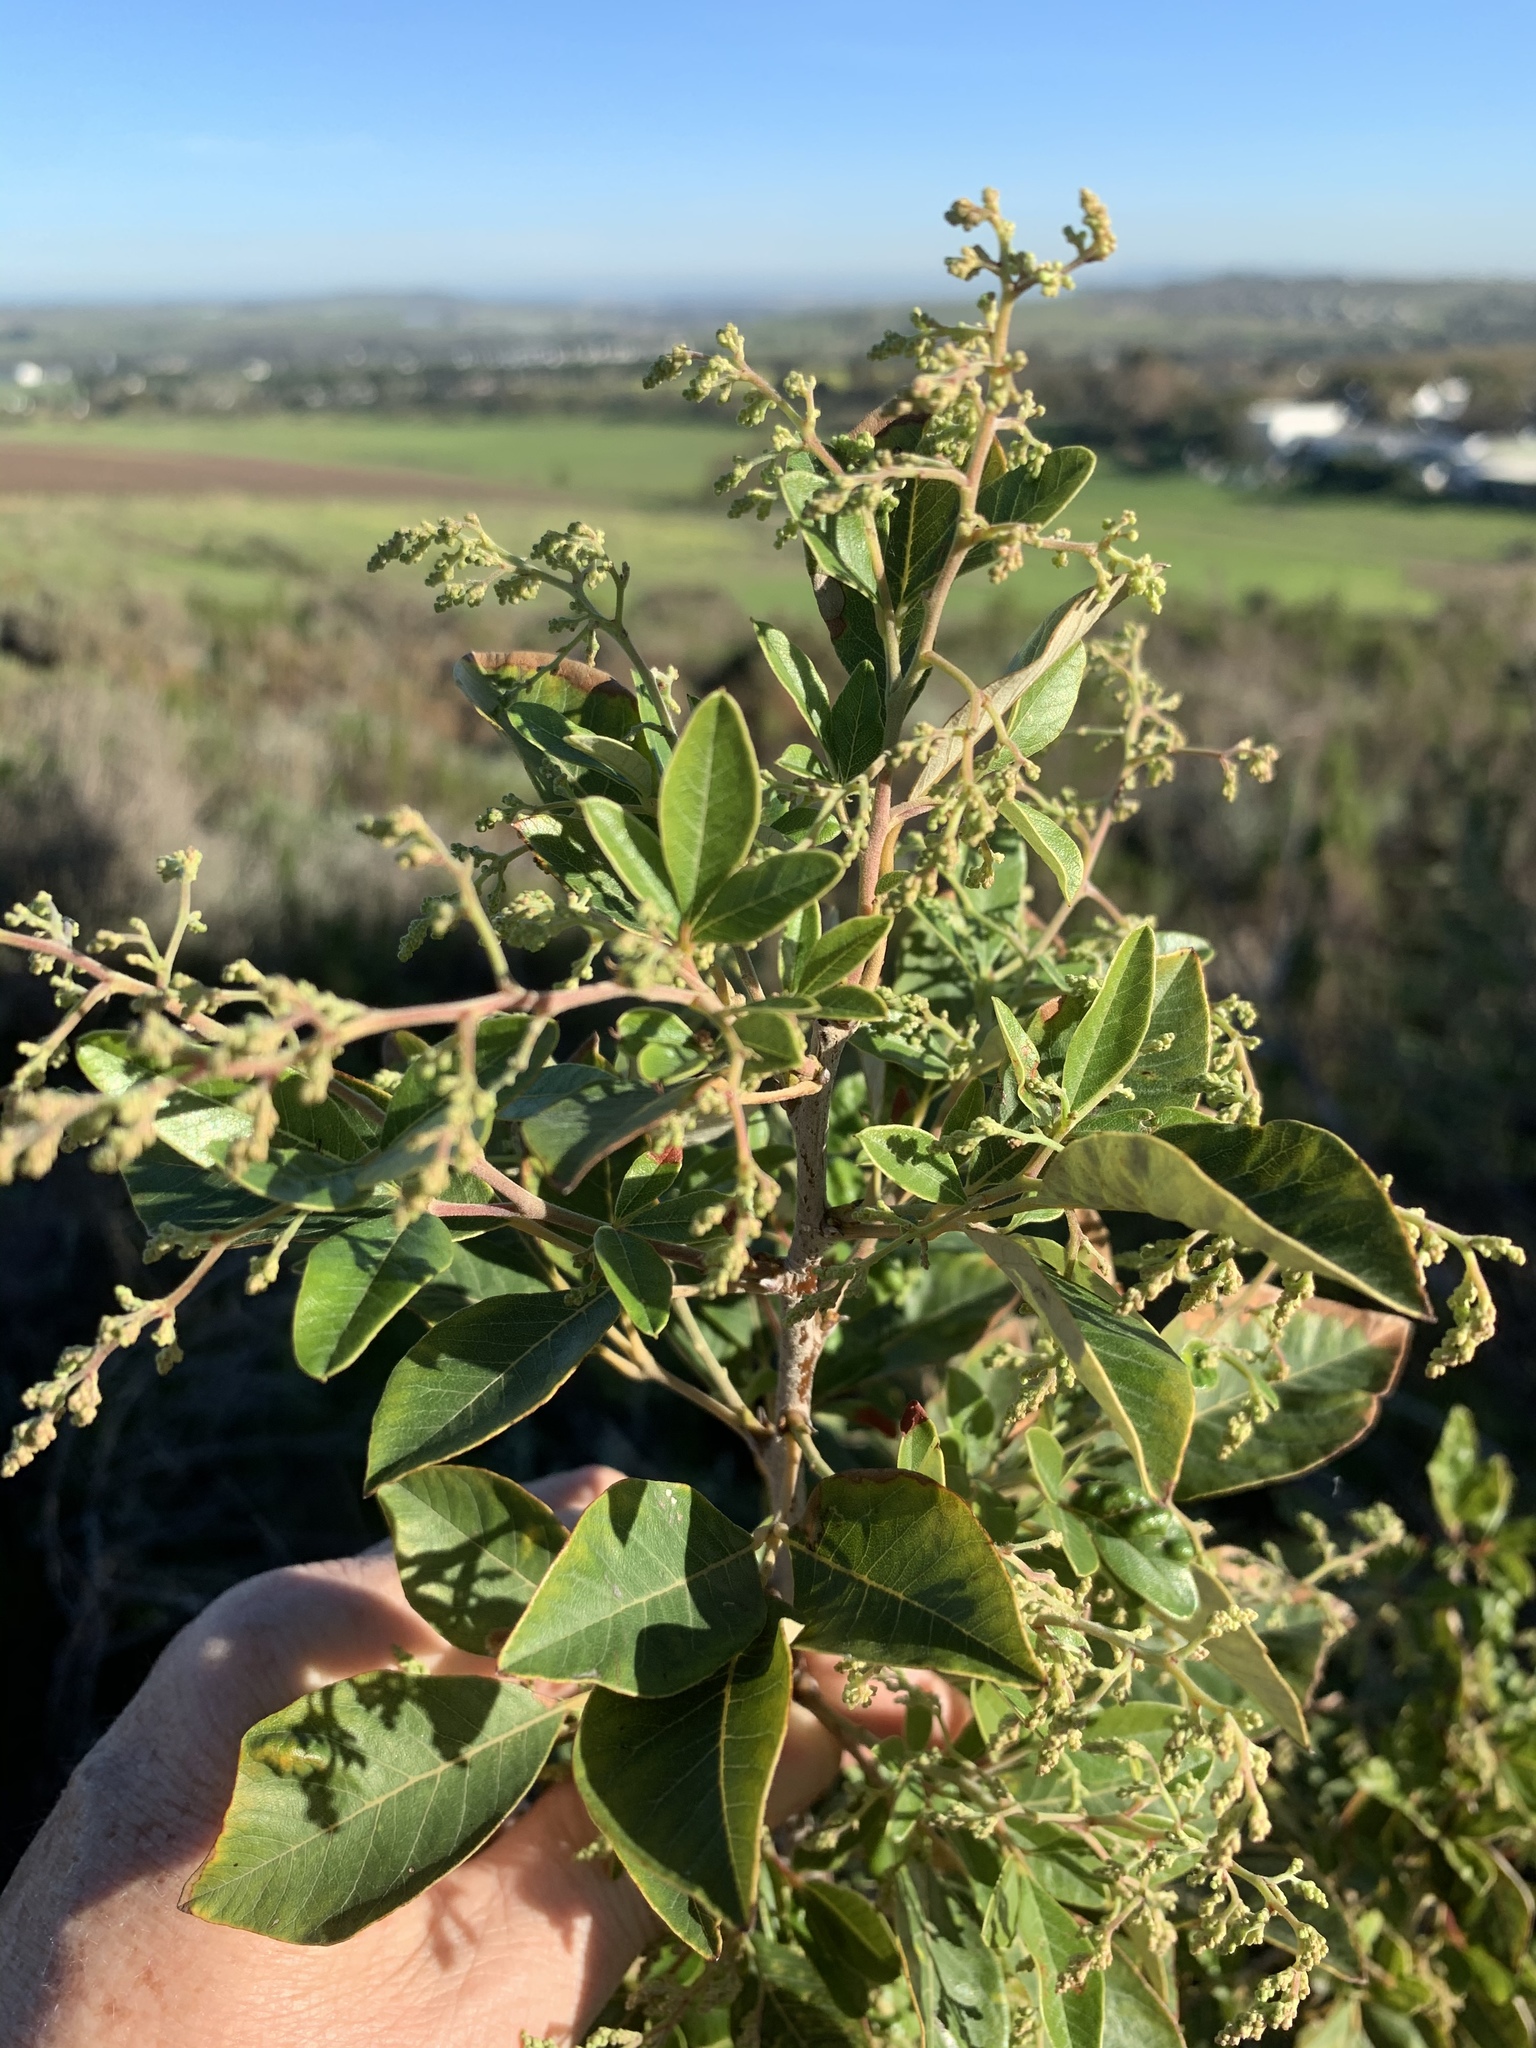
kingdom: Plantae
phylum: Tracheophyta
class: Magnoliopsida
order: Sapindales
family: Anacardiaceae
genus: Searsia
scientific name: Searsia tomentosa
